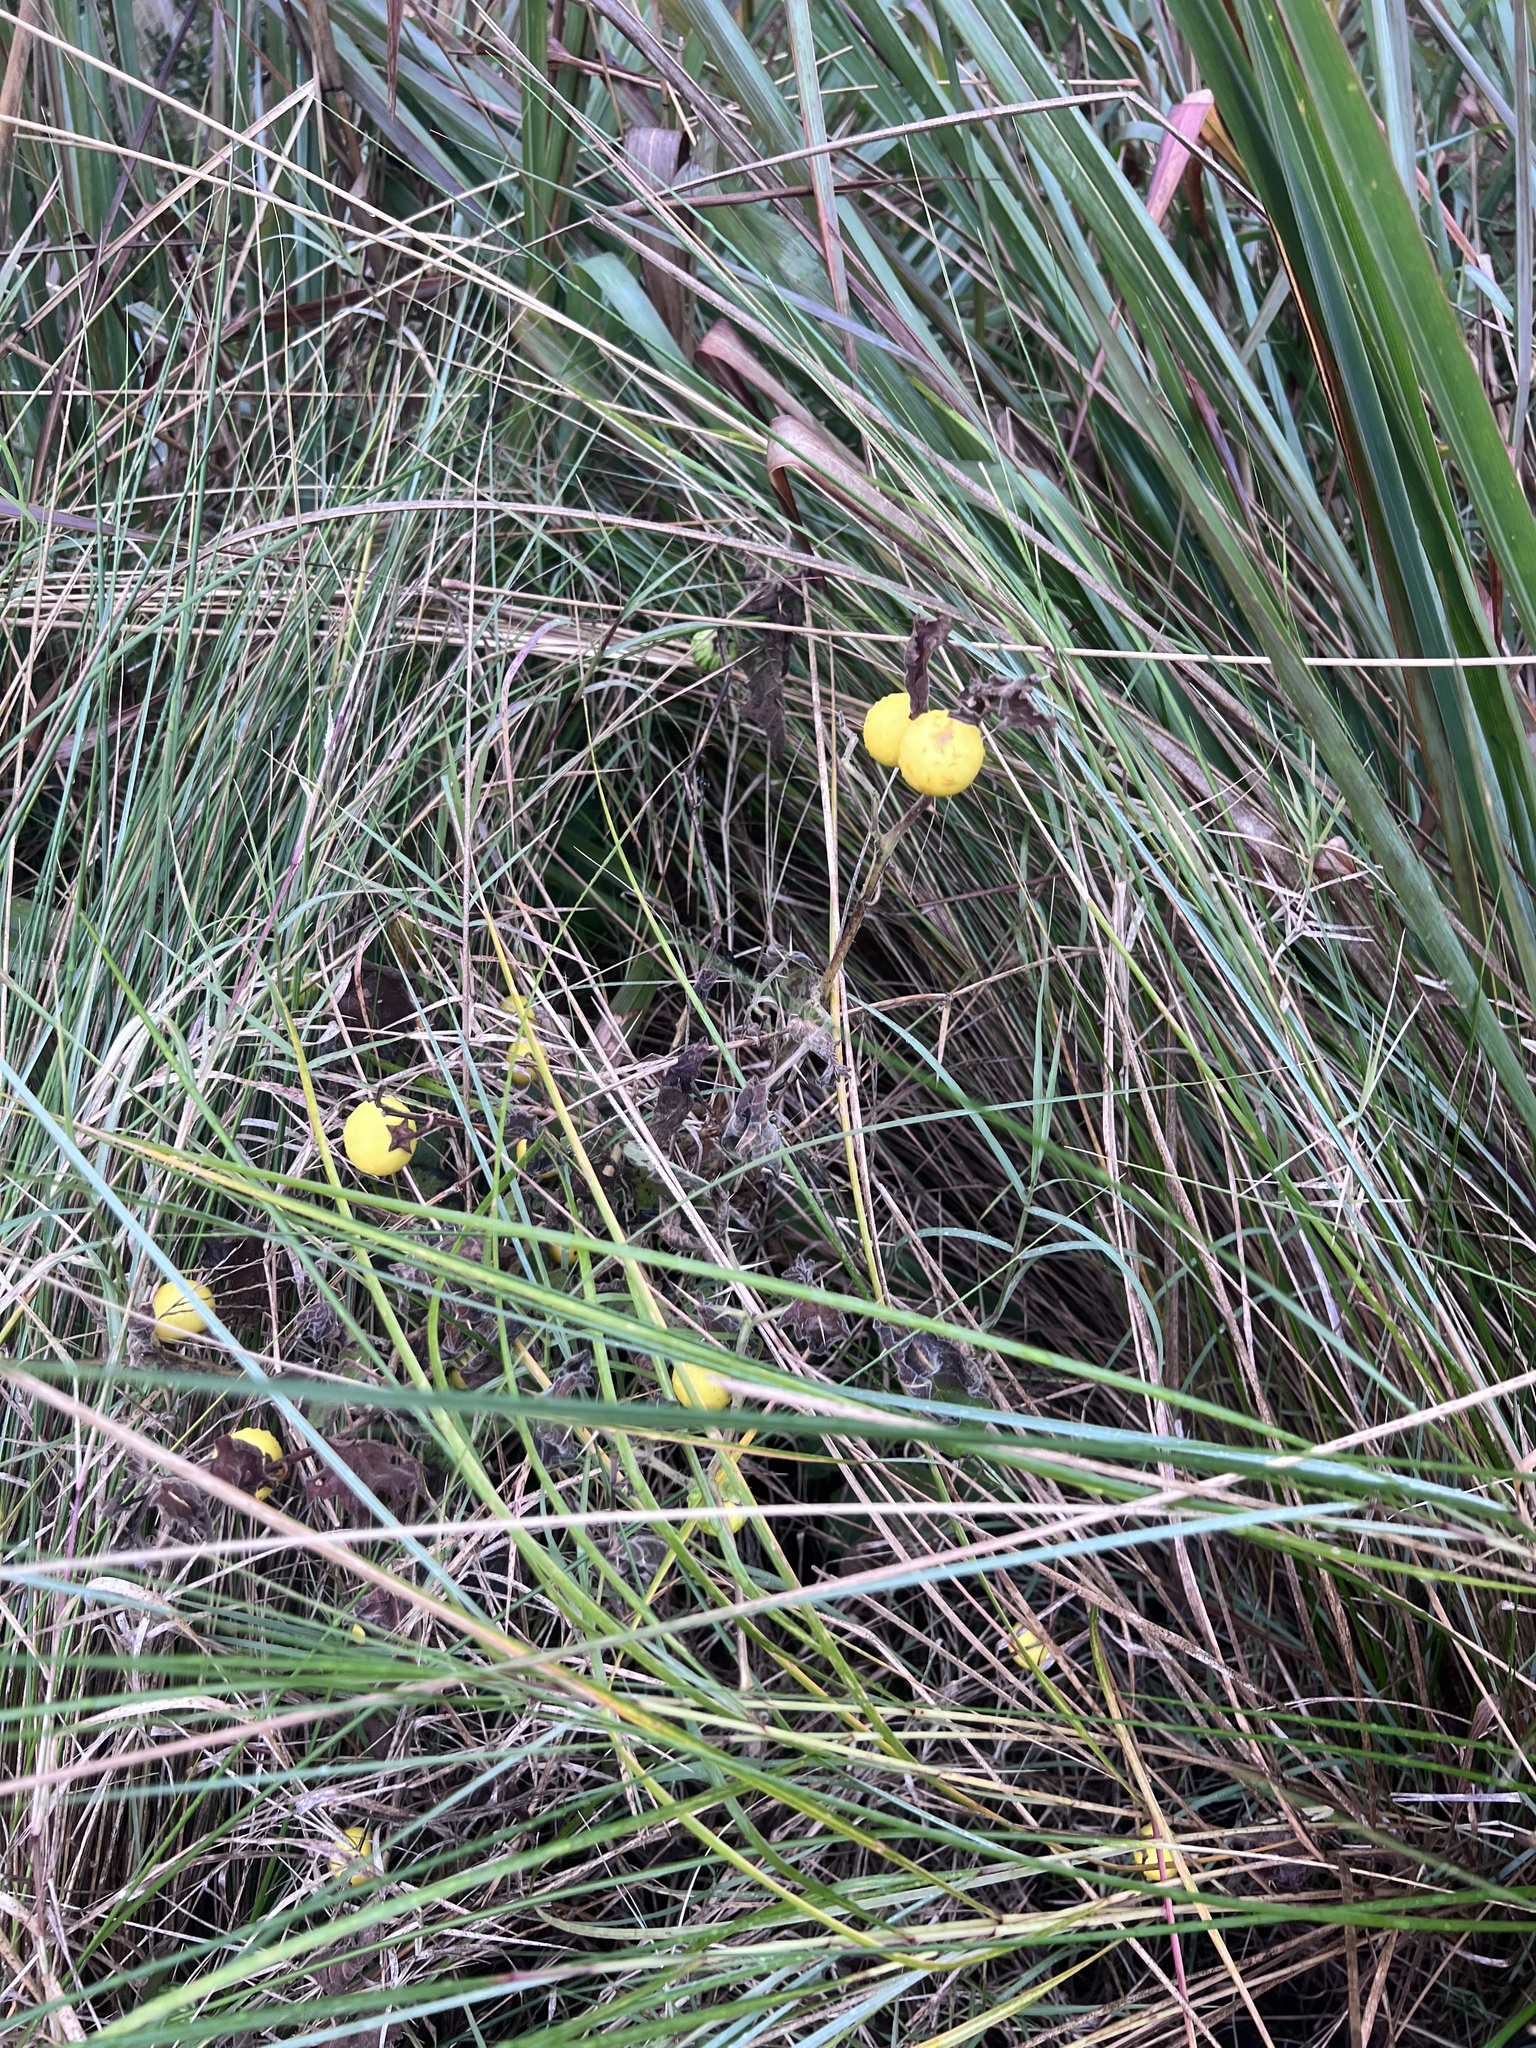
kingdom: Plantae
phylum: Tracheophyta
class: Magnoliopsida
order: Solanales
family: Solanaceae
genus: Solanum
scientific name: Solanum viarum
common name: Tropical soda apple
